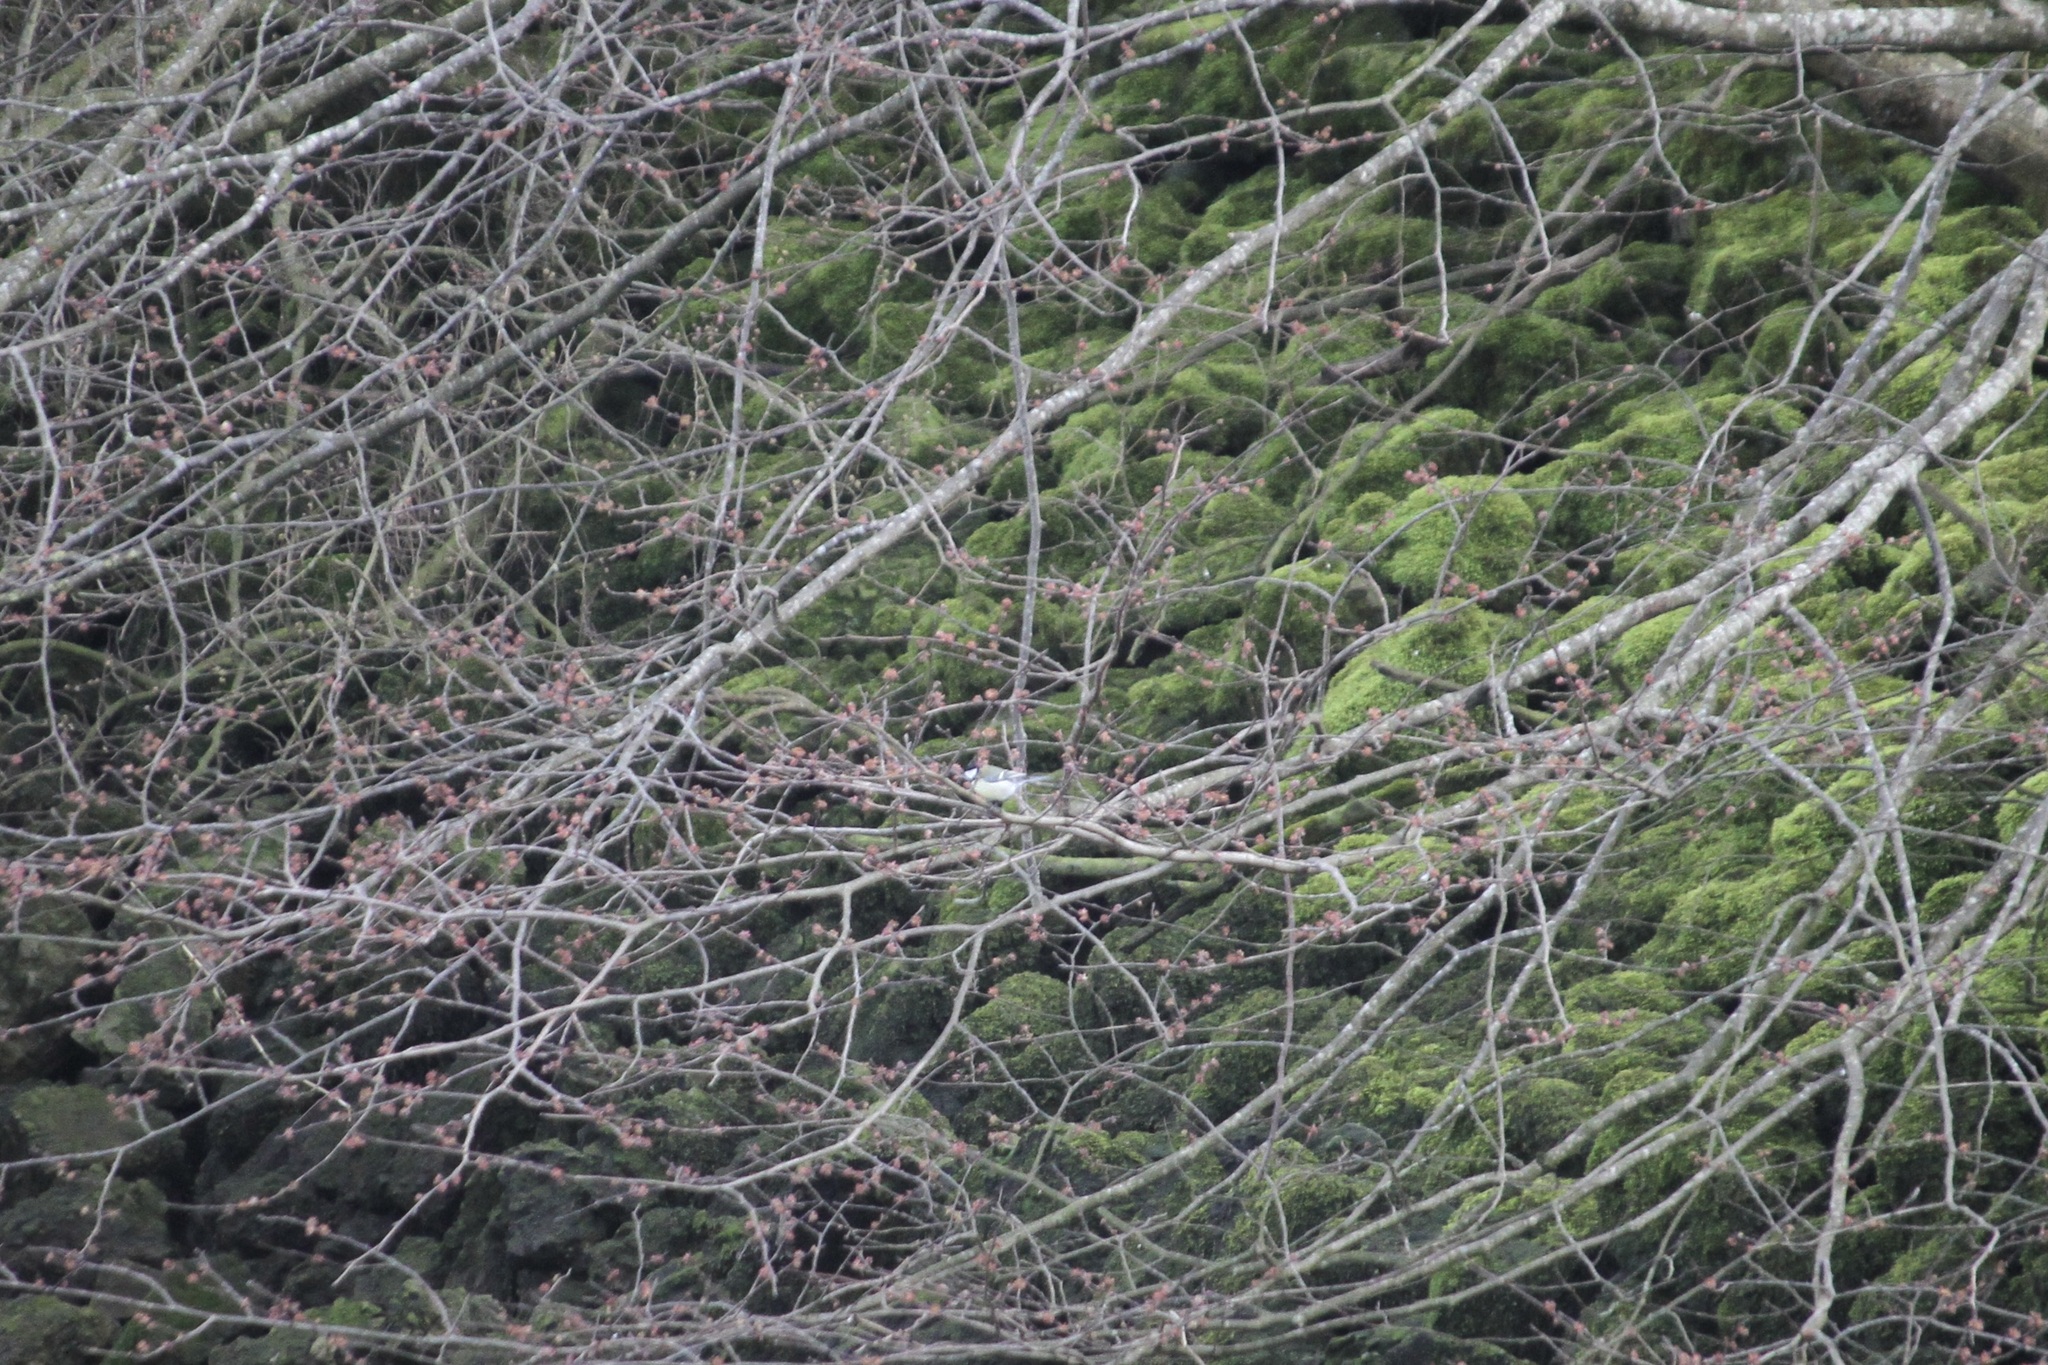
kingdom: Animalia
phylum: Chordata
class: Aves
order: Passeriformes
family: Paridae
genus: Parus
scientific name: Parus major
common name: Great tit
